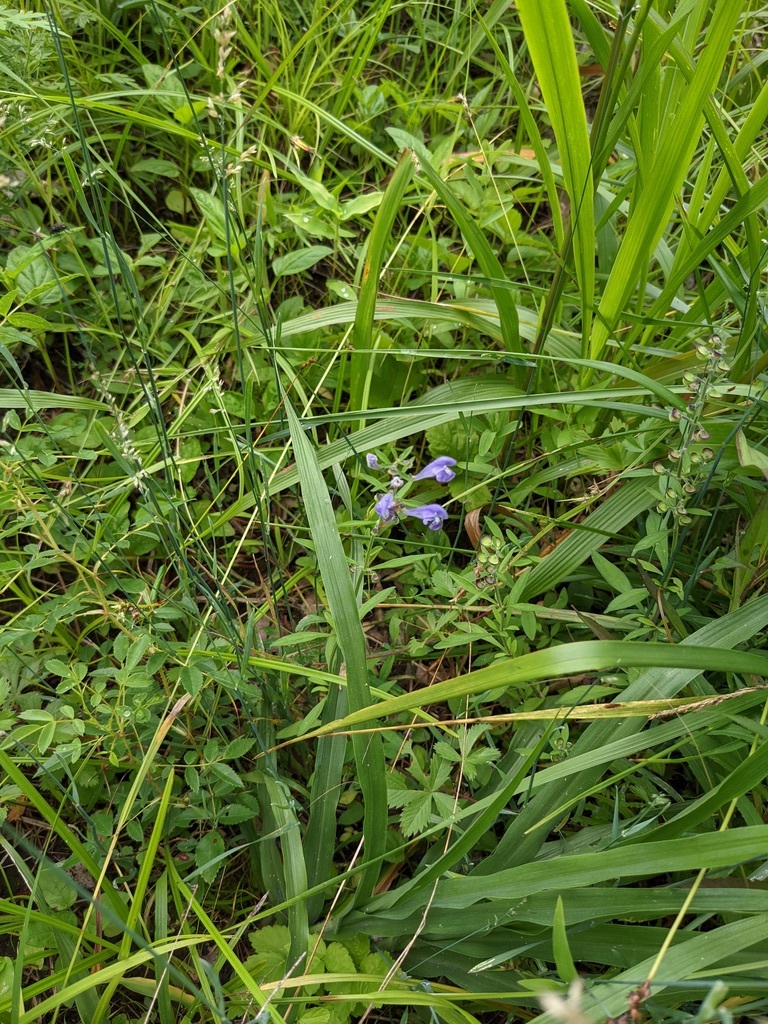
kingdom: Plantae
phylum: Tracheophyta
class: Magnoliopsida
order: Lamiales
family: Lamiaceae
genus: Scutellaria
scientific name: Scutellaria integrifolia
